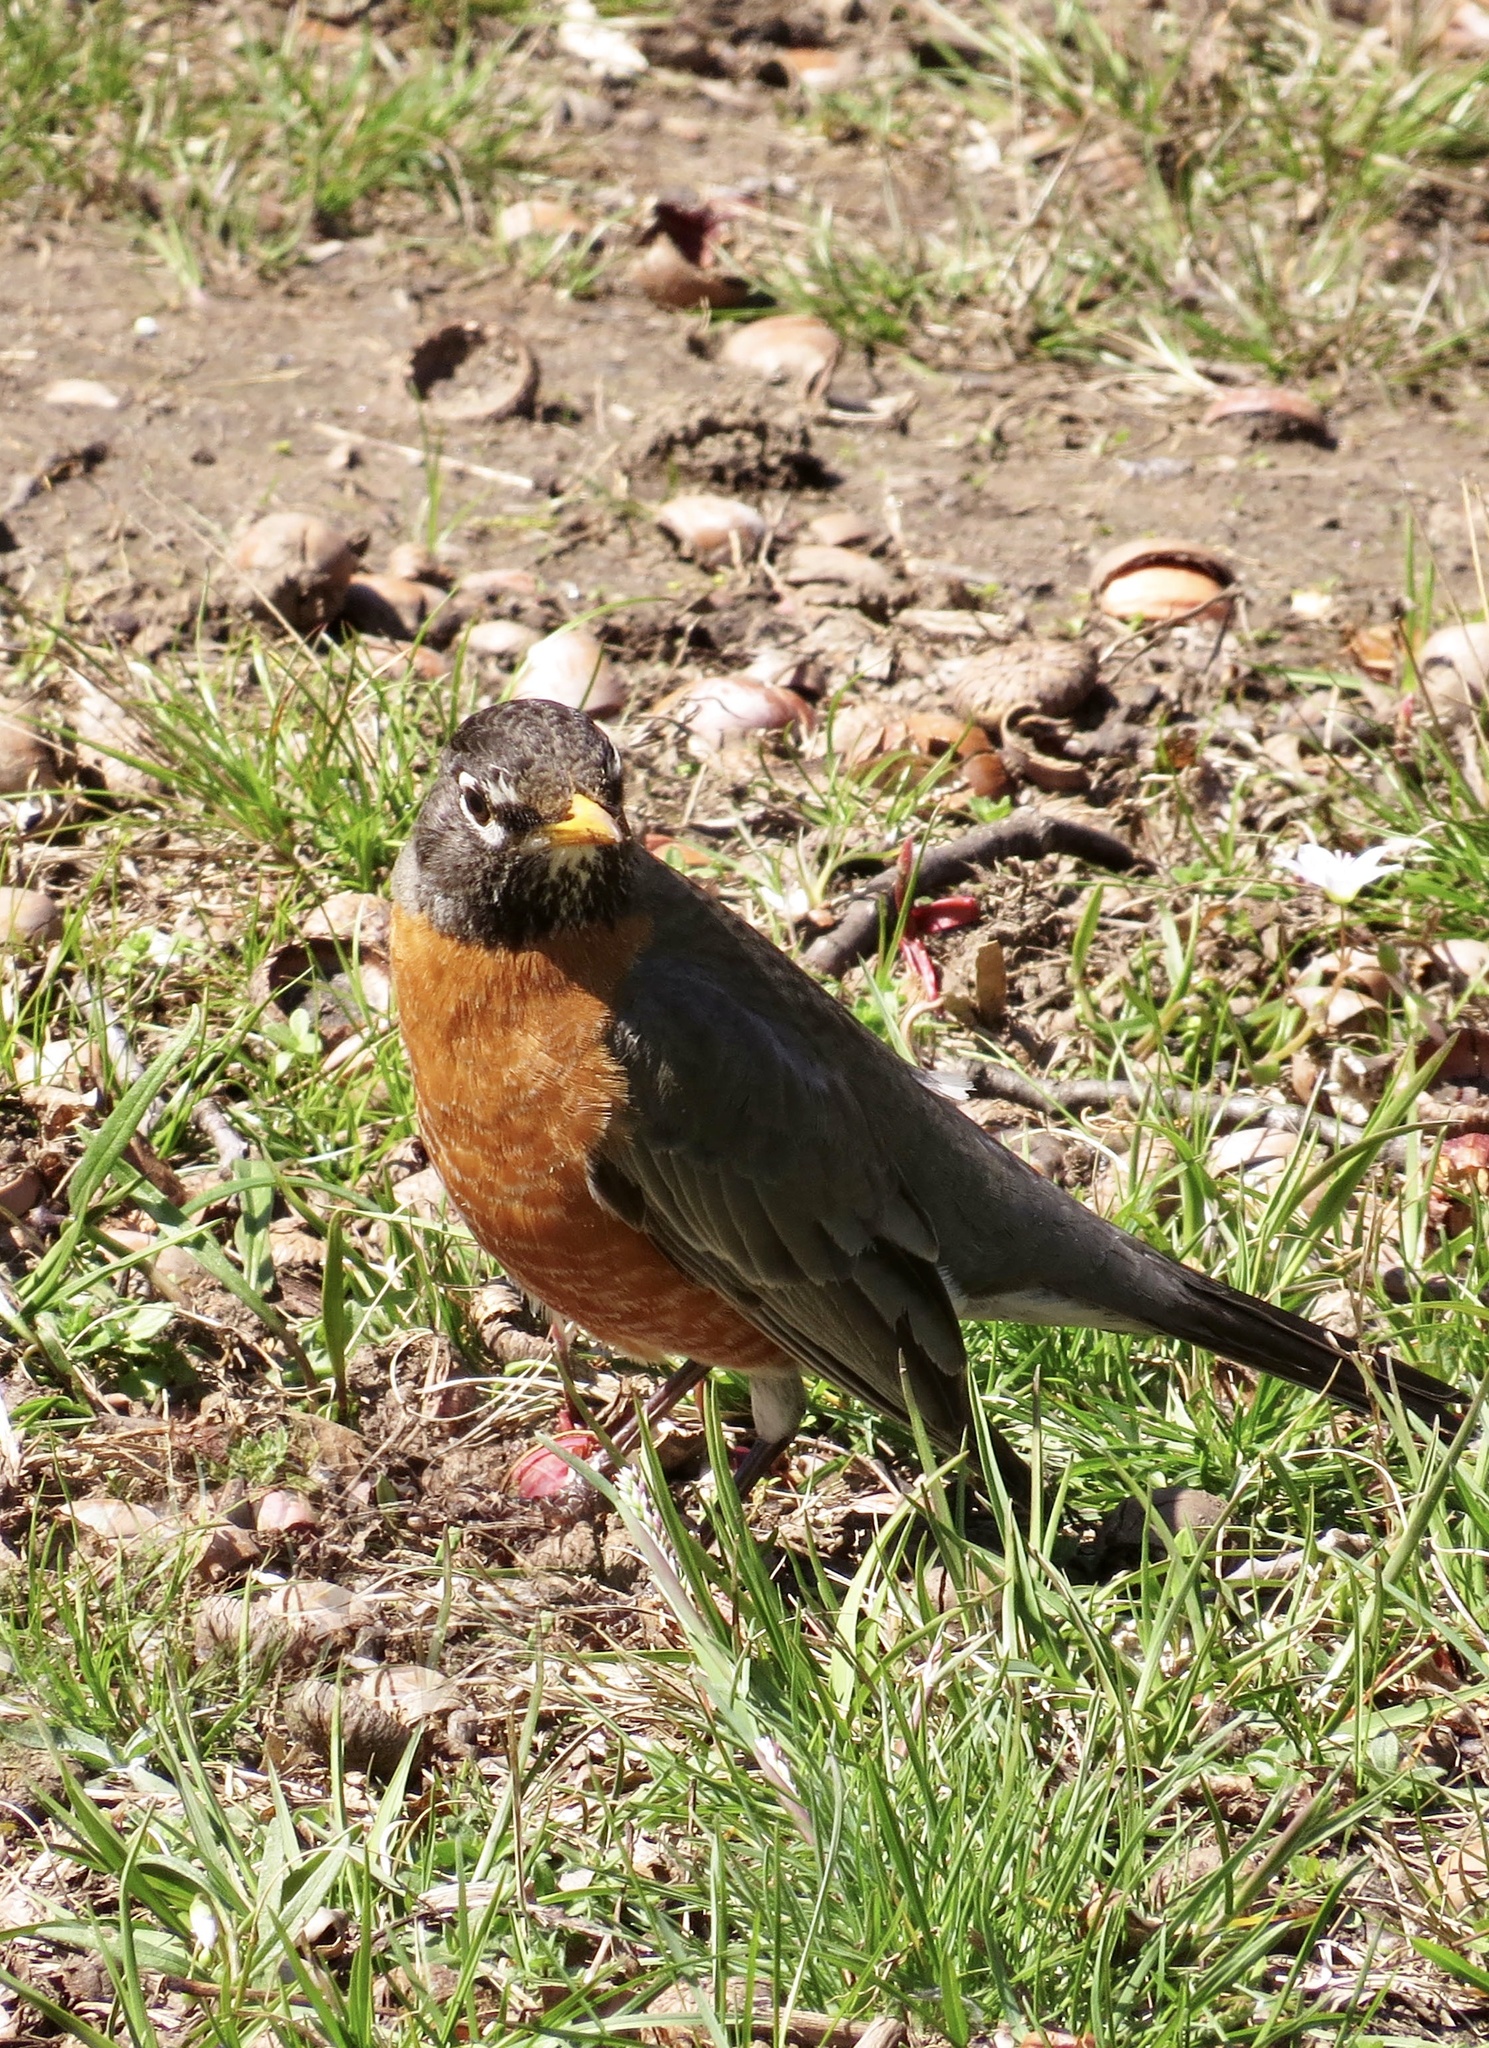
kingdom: Animalia
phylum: Chordata
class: Aves
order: Passeriformes
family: Turdidae
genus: Turdus
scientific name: Turdus migratorius
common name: American robin
